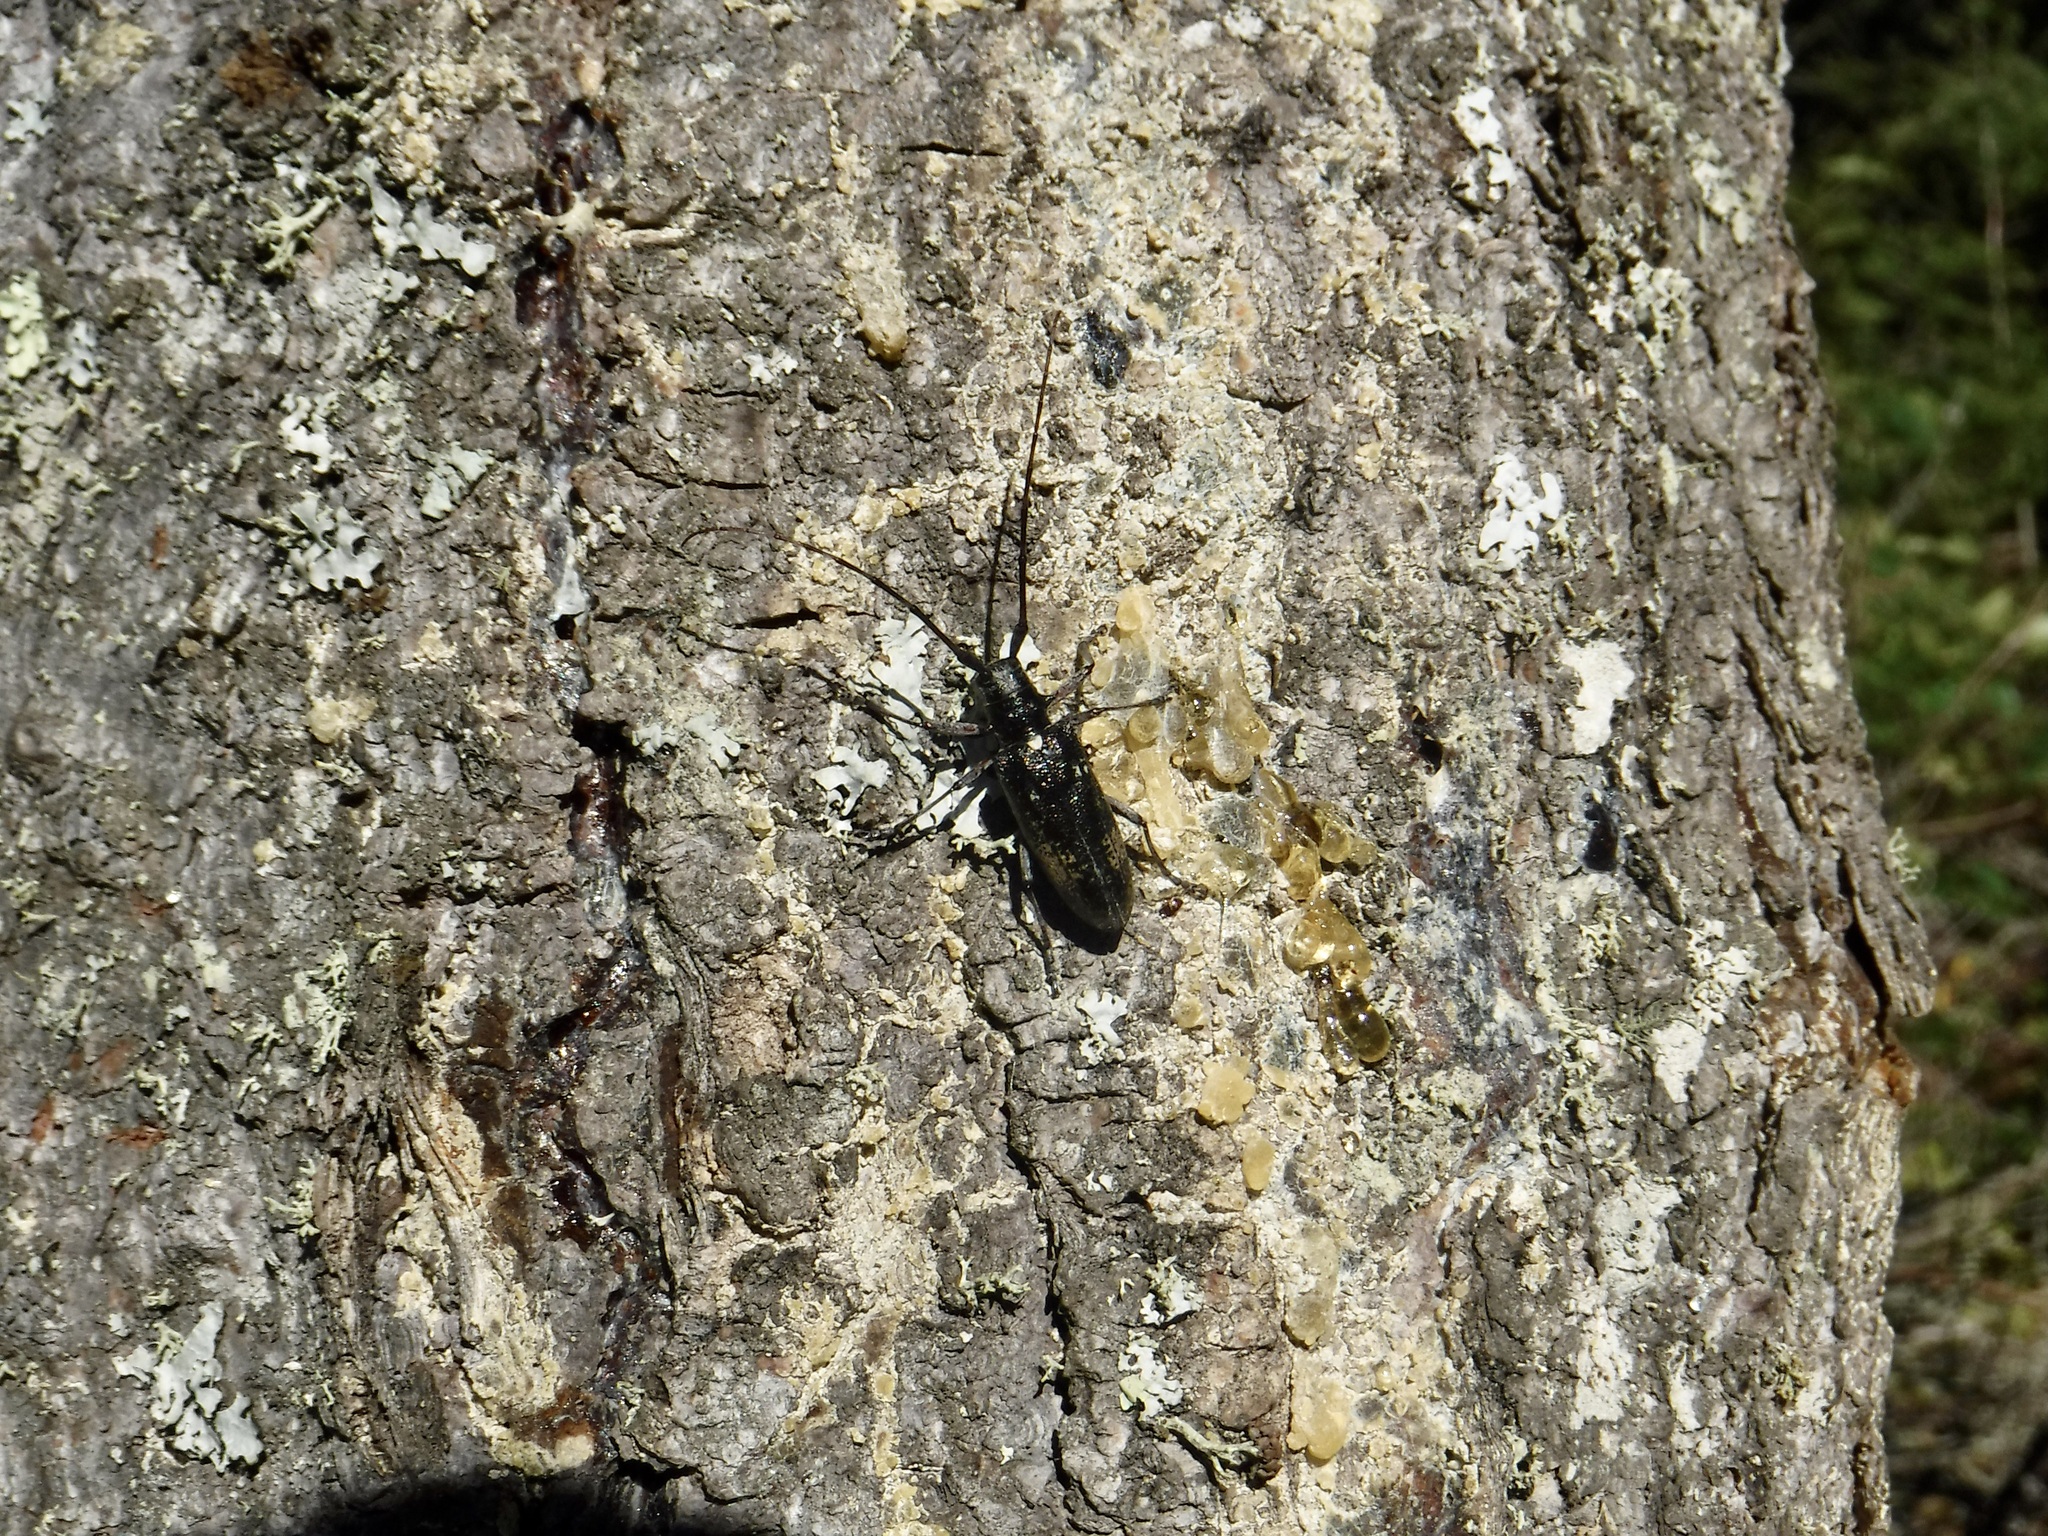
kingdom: Animalia
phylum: Arthropoda
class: Insecta
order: Coleoptera
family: Cerambycidae
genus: Monochamus
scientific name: Monochamus scutellatus
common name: White-spotted sawyer beetle
